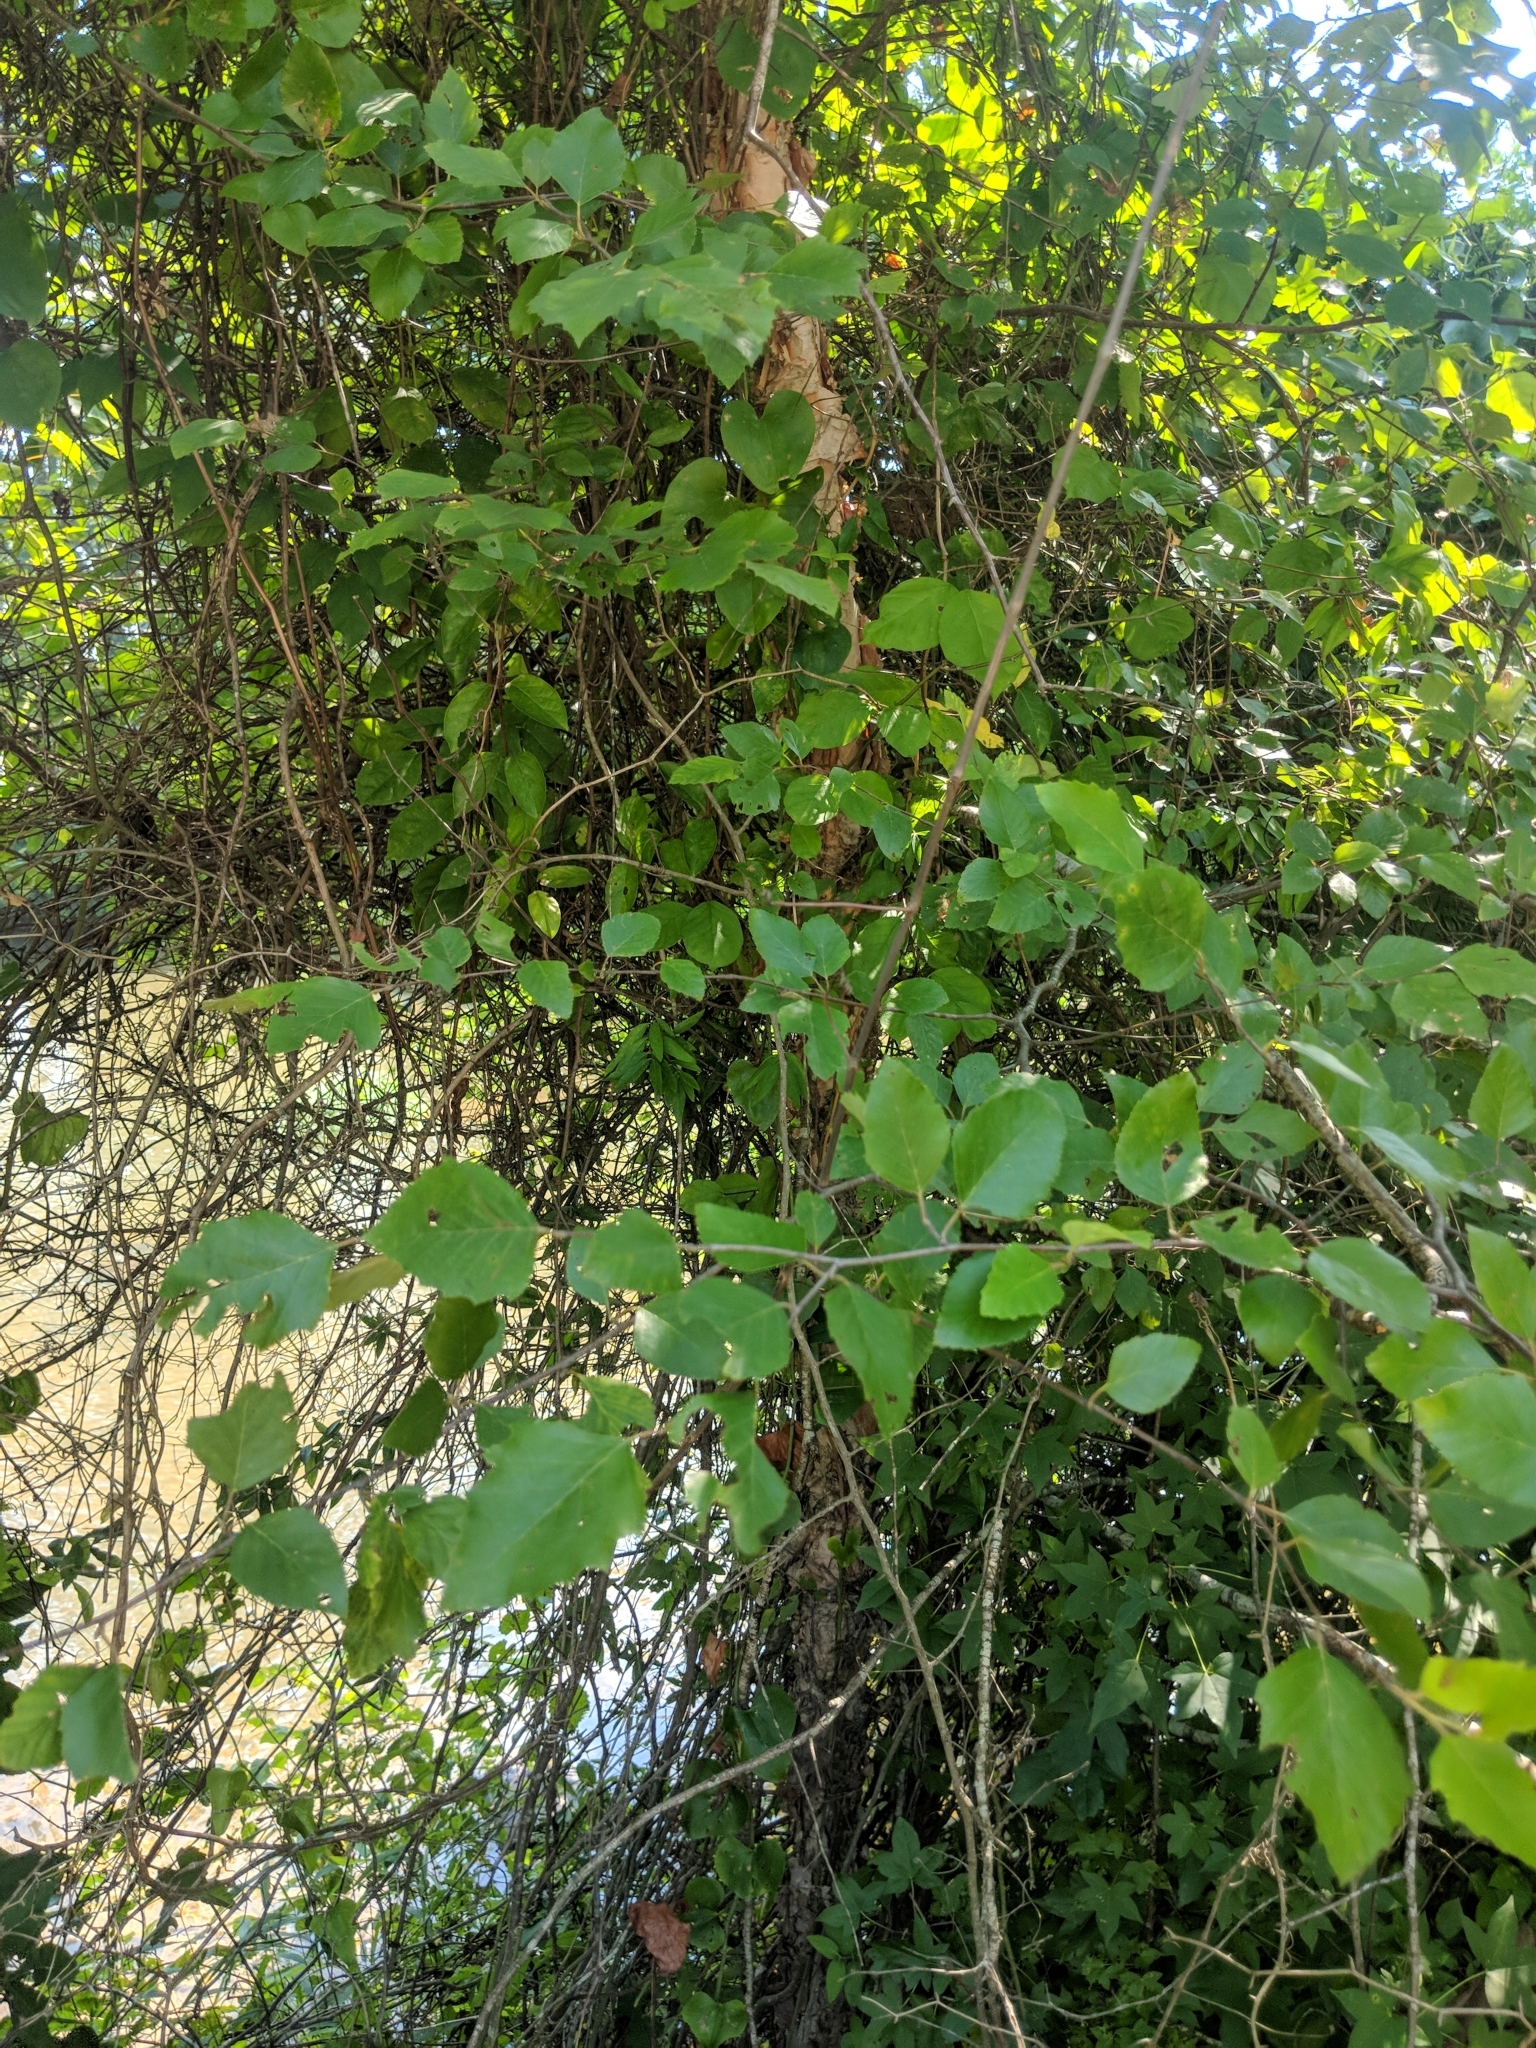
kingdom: Plantae
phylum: Tracheophyta
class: Magnoliopsida
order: Fagales
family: Betulaceae
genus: Betula
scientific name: Betula nigra
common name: Black birch
